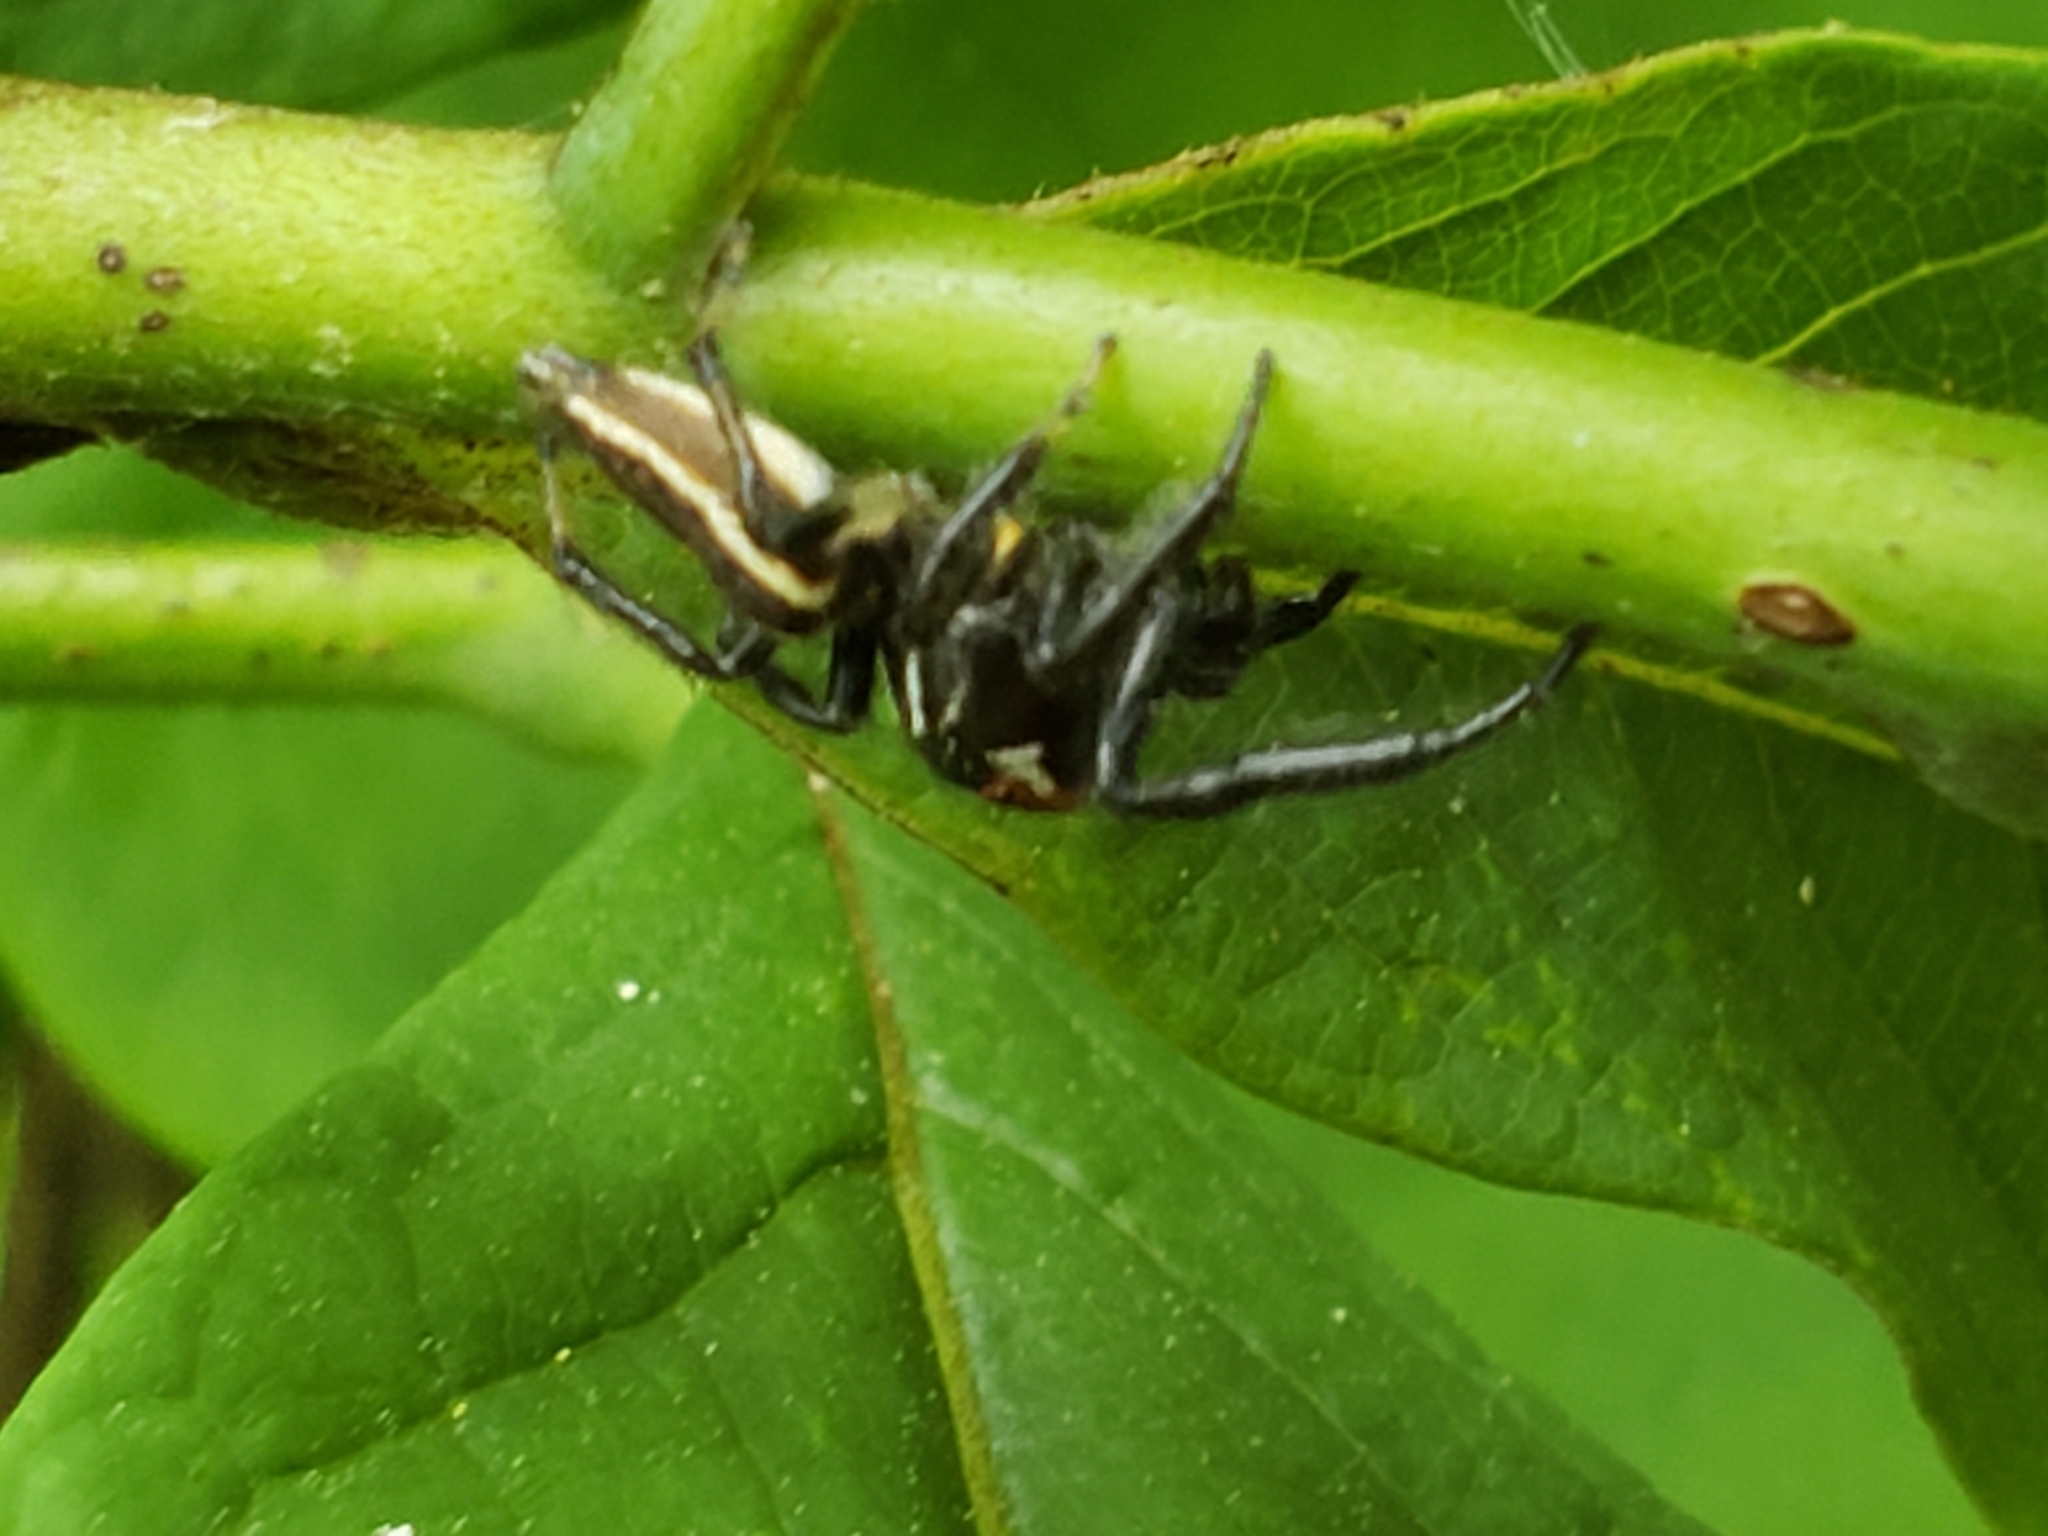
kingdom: Animalia
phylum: Arthropoda
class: Arachnida
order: Araneae
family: Salticidae
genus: Colonus
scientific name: Colonus sylvanus
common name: Jumping spiders
